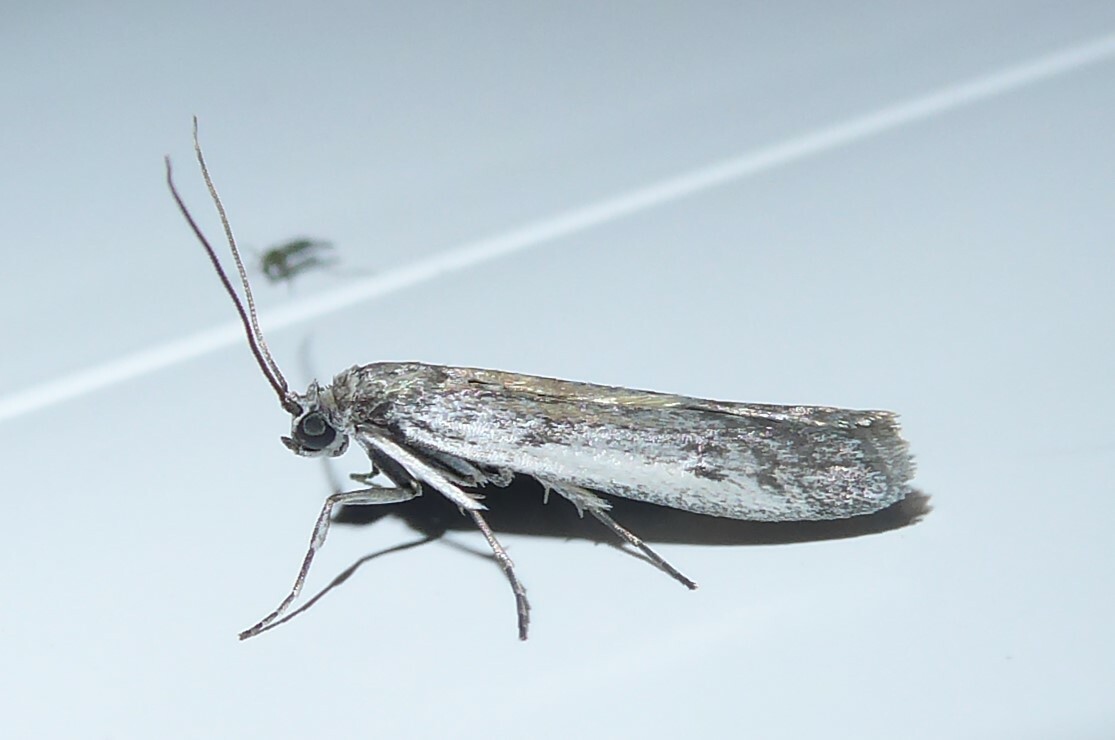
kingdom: Animalia
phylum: Arthropoda
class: Insecta
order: Lepidoptera
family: Pyralidae
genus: Patagoniodes
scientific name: Patagoniodes farinaria
